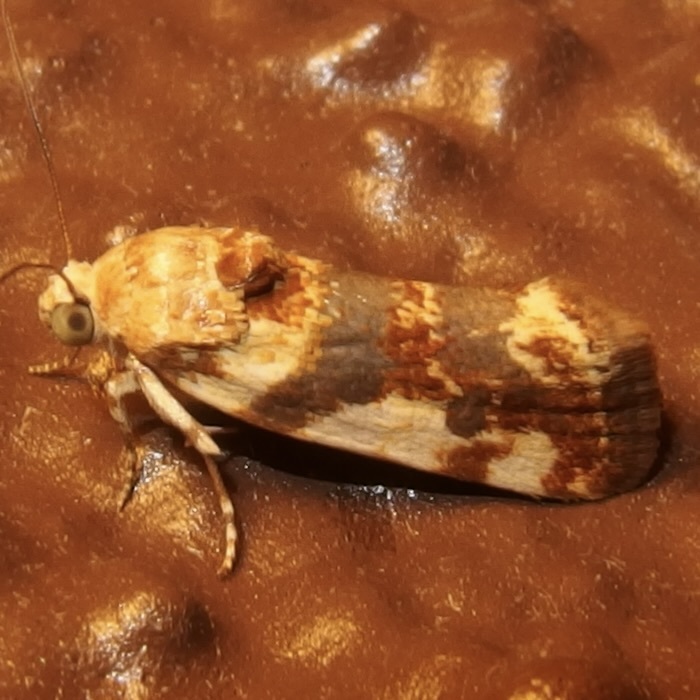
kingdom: Animalia
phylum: Arthropoda
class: Insecta
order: Lepidoptera
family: Noctuidae
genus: Acontia
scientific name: Acontia obatra
